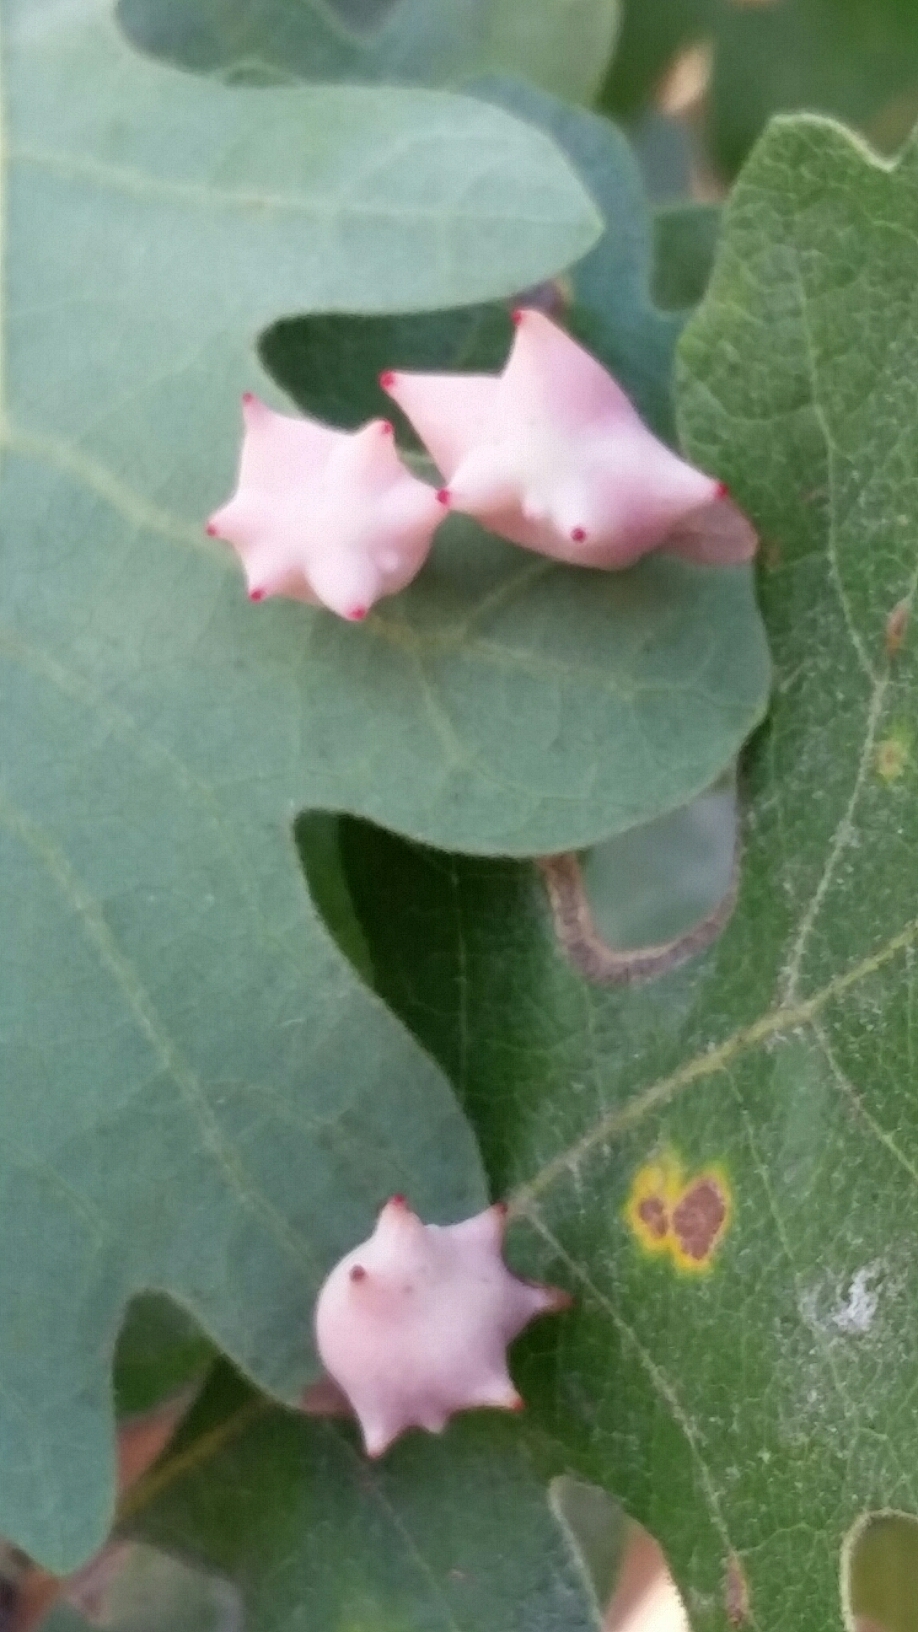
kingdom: Animalia
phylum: Arthropoda
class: Insecta
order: Hymenoptera
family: Cynipidae
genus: Cynips
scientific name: Cynips douglasi
